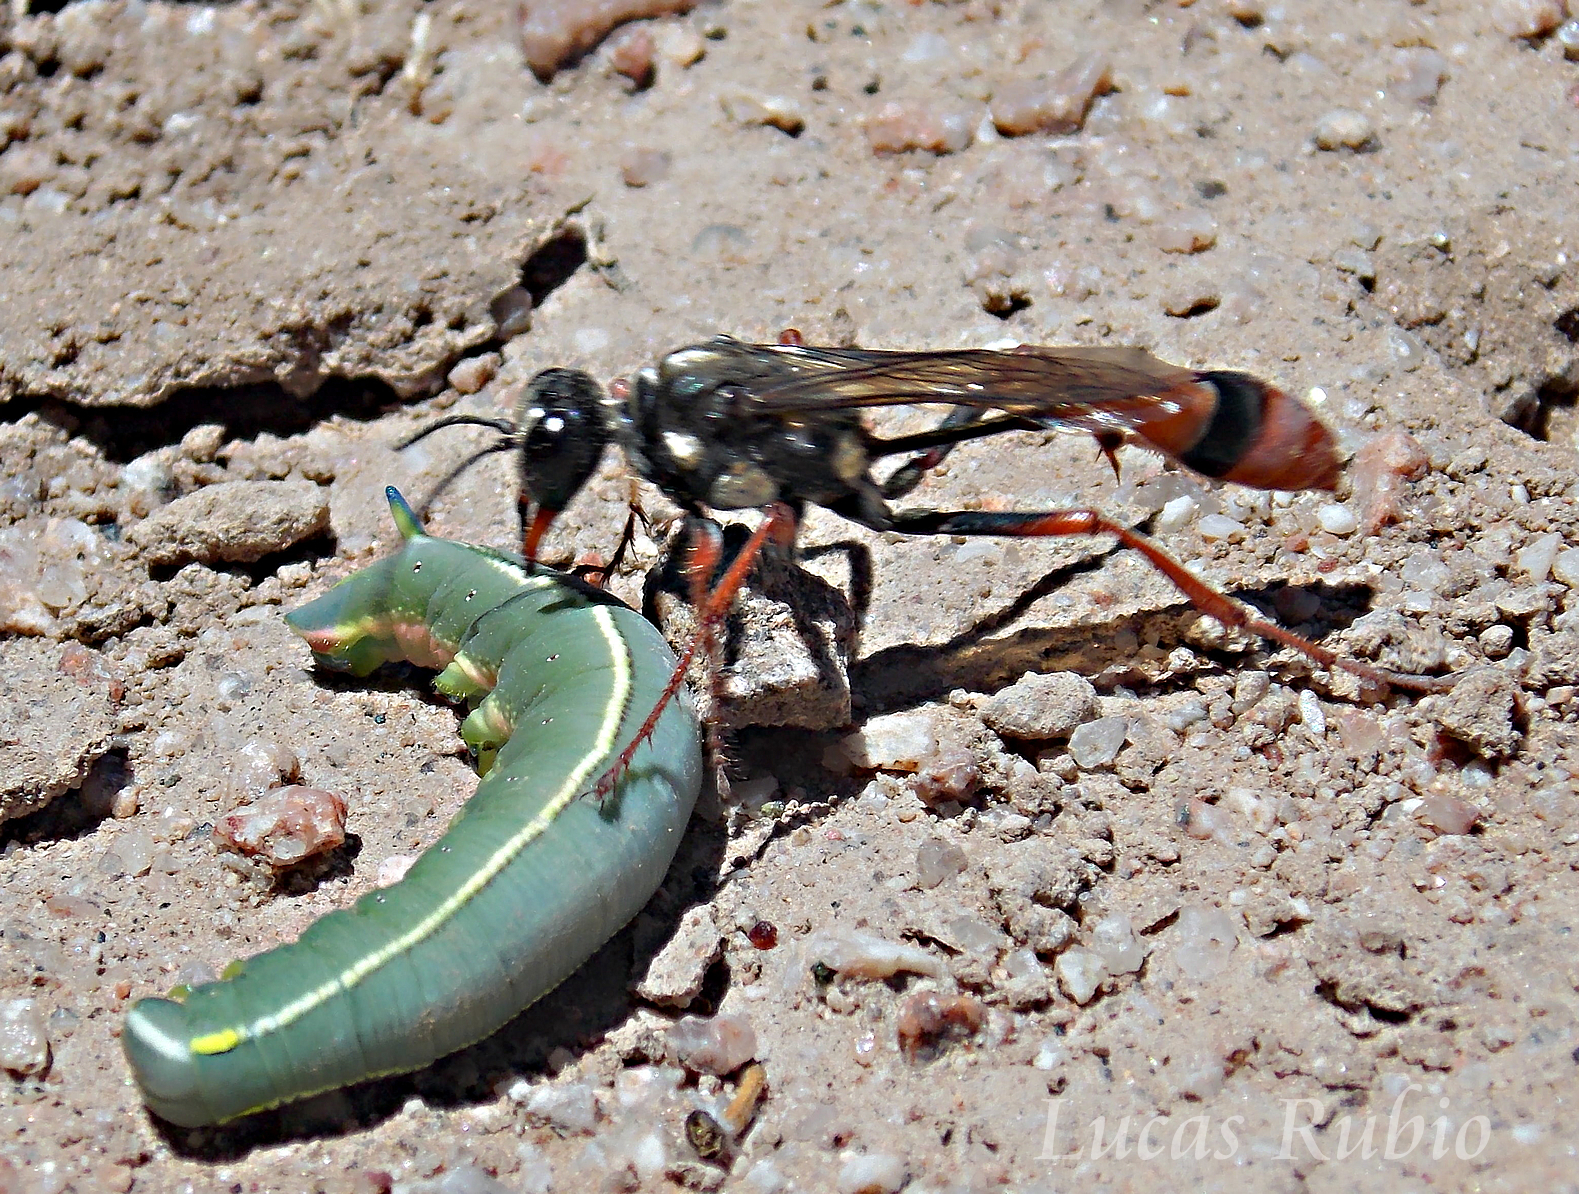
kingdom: Animalia
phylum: Arthropoda
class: Insecta
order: Hymenoptera
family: Sphecidae
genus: Eremnophila
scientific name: Eremnophila auromaculata
